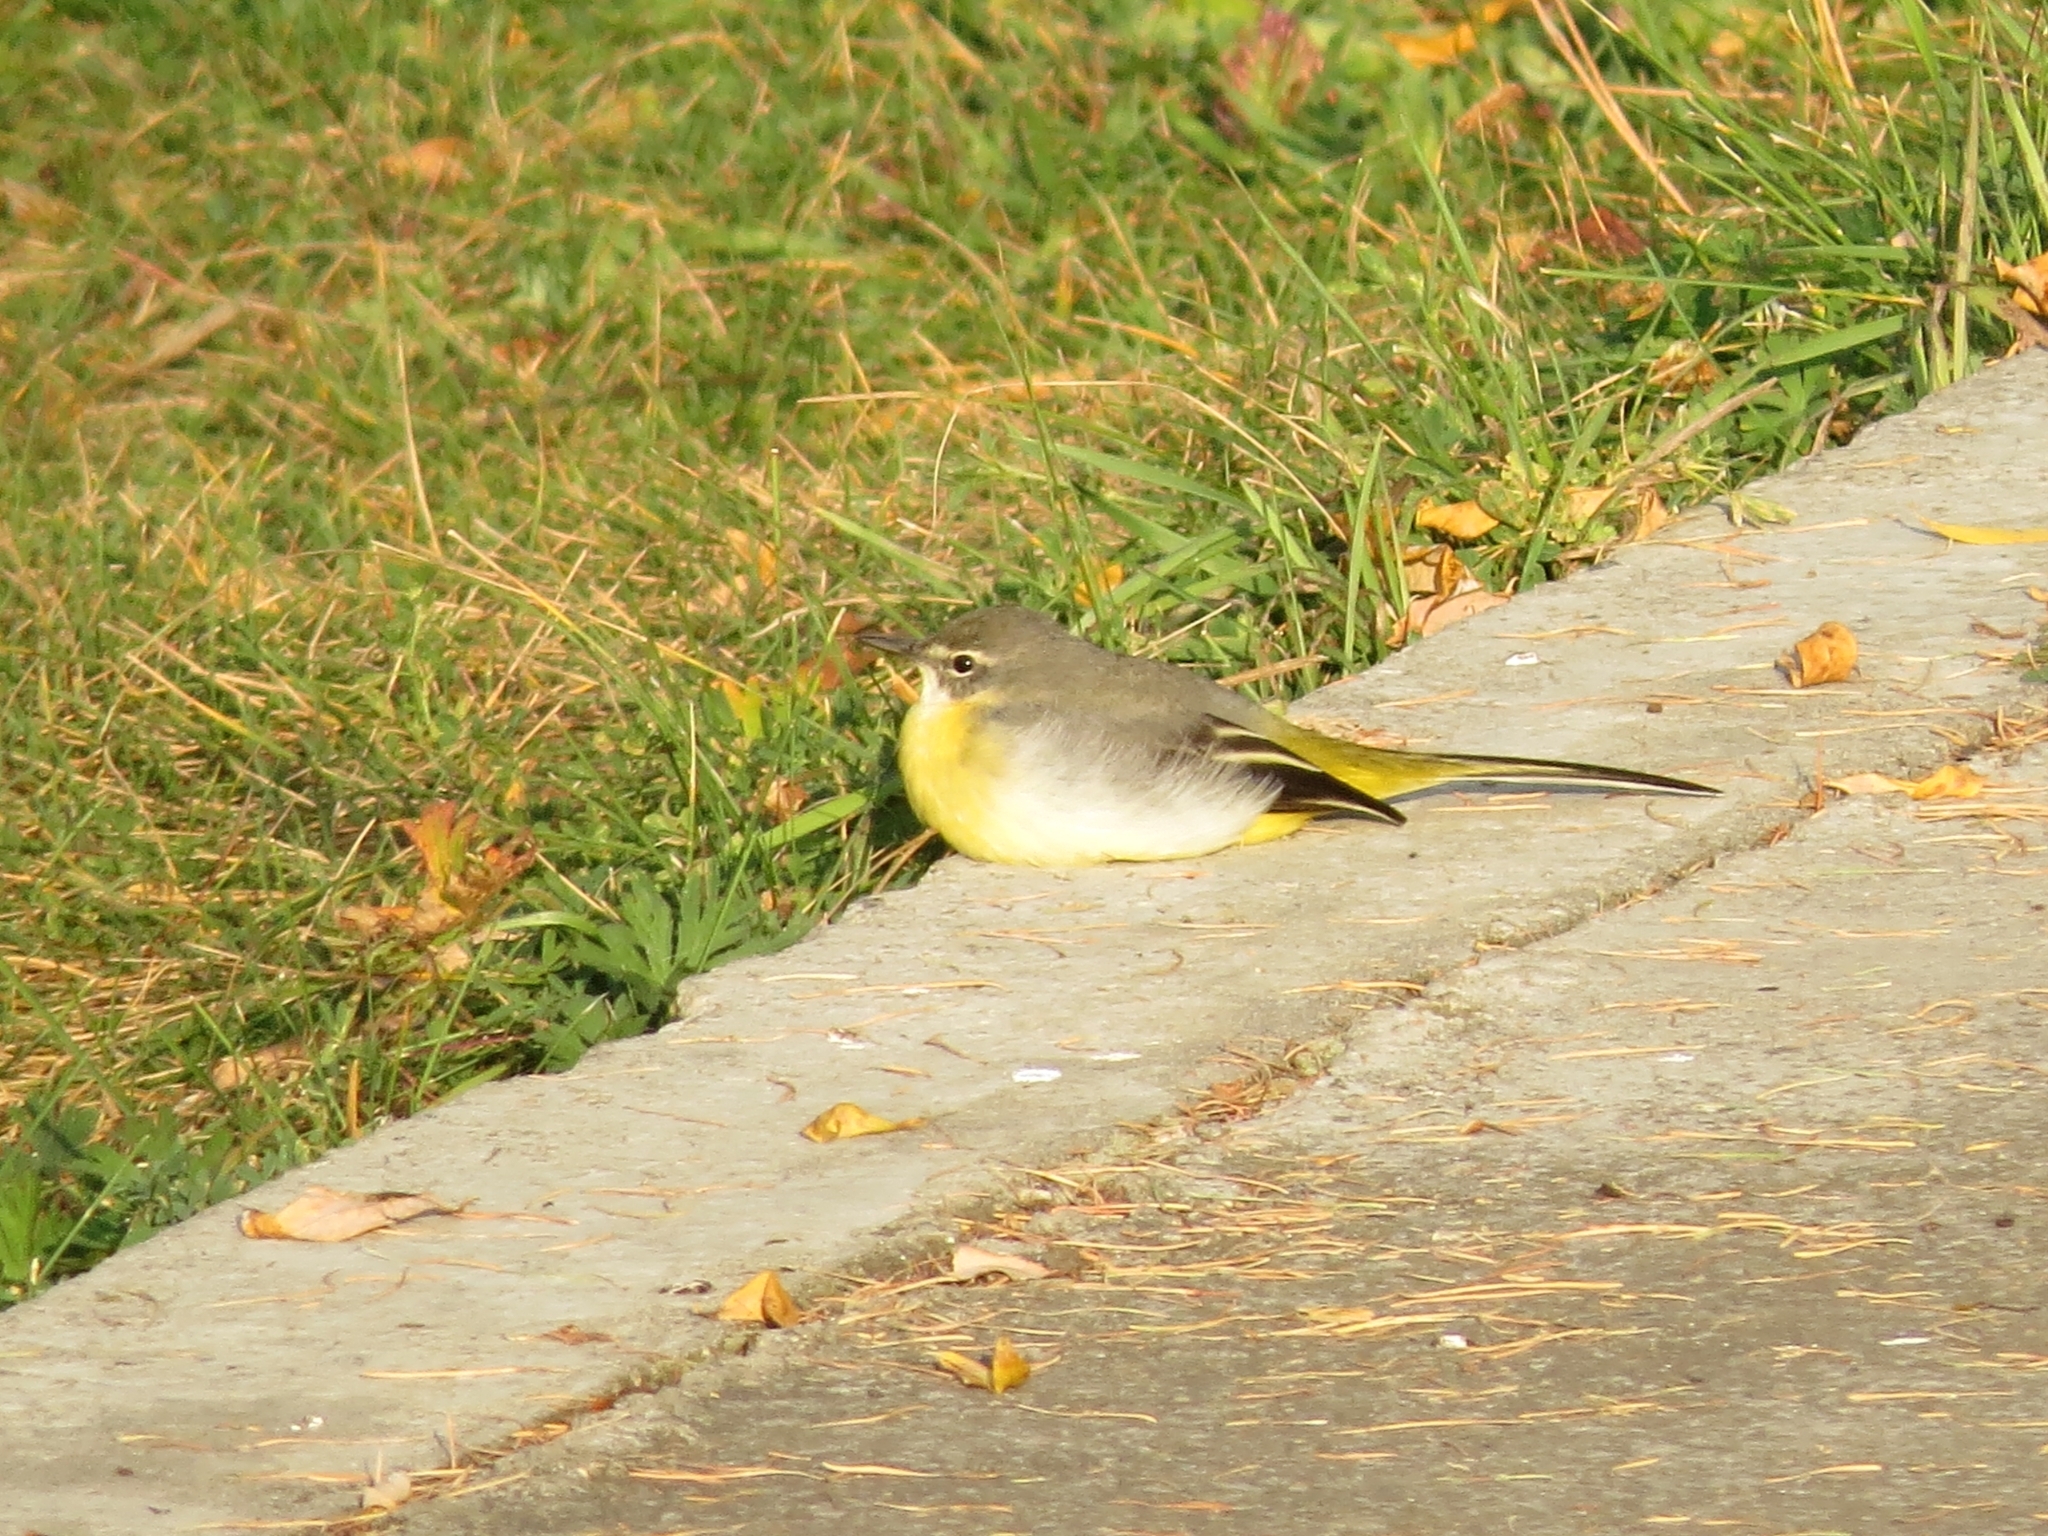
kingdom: Animalia
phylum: Chordata
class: Aves
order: Passeriformes
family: Motacillidae
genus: Motacilla
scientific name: Motacilla cinerea
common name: Grey wagtail
